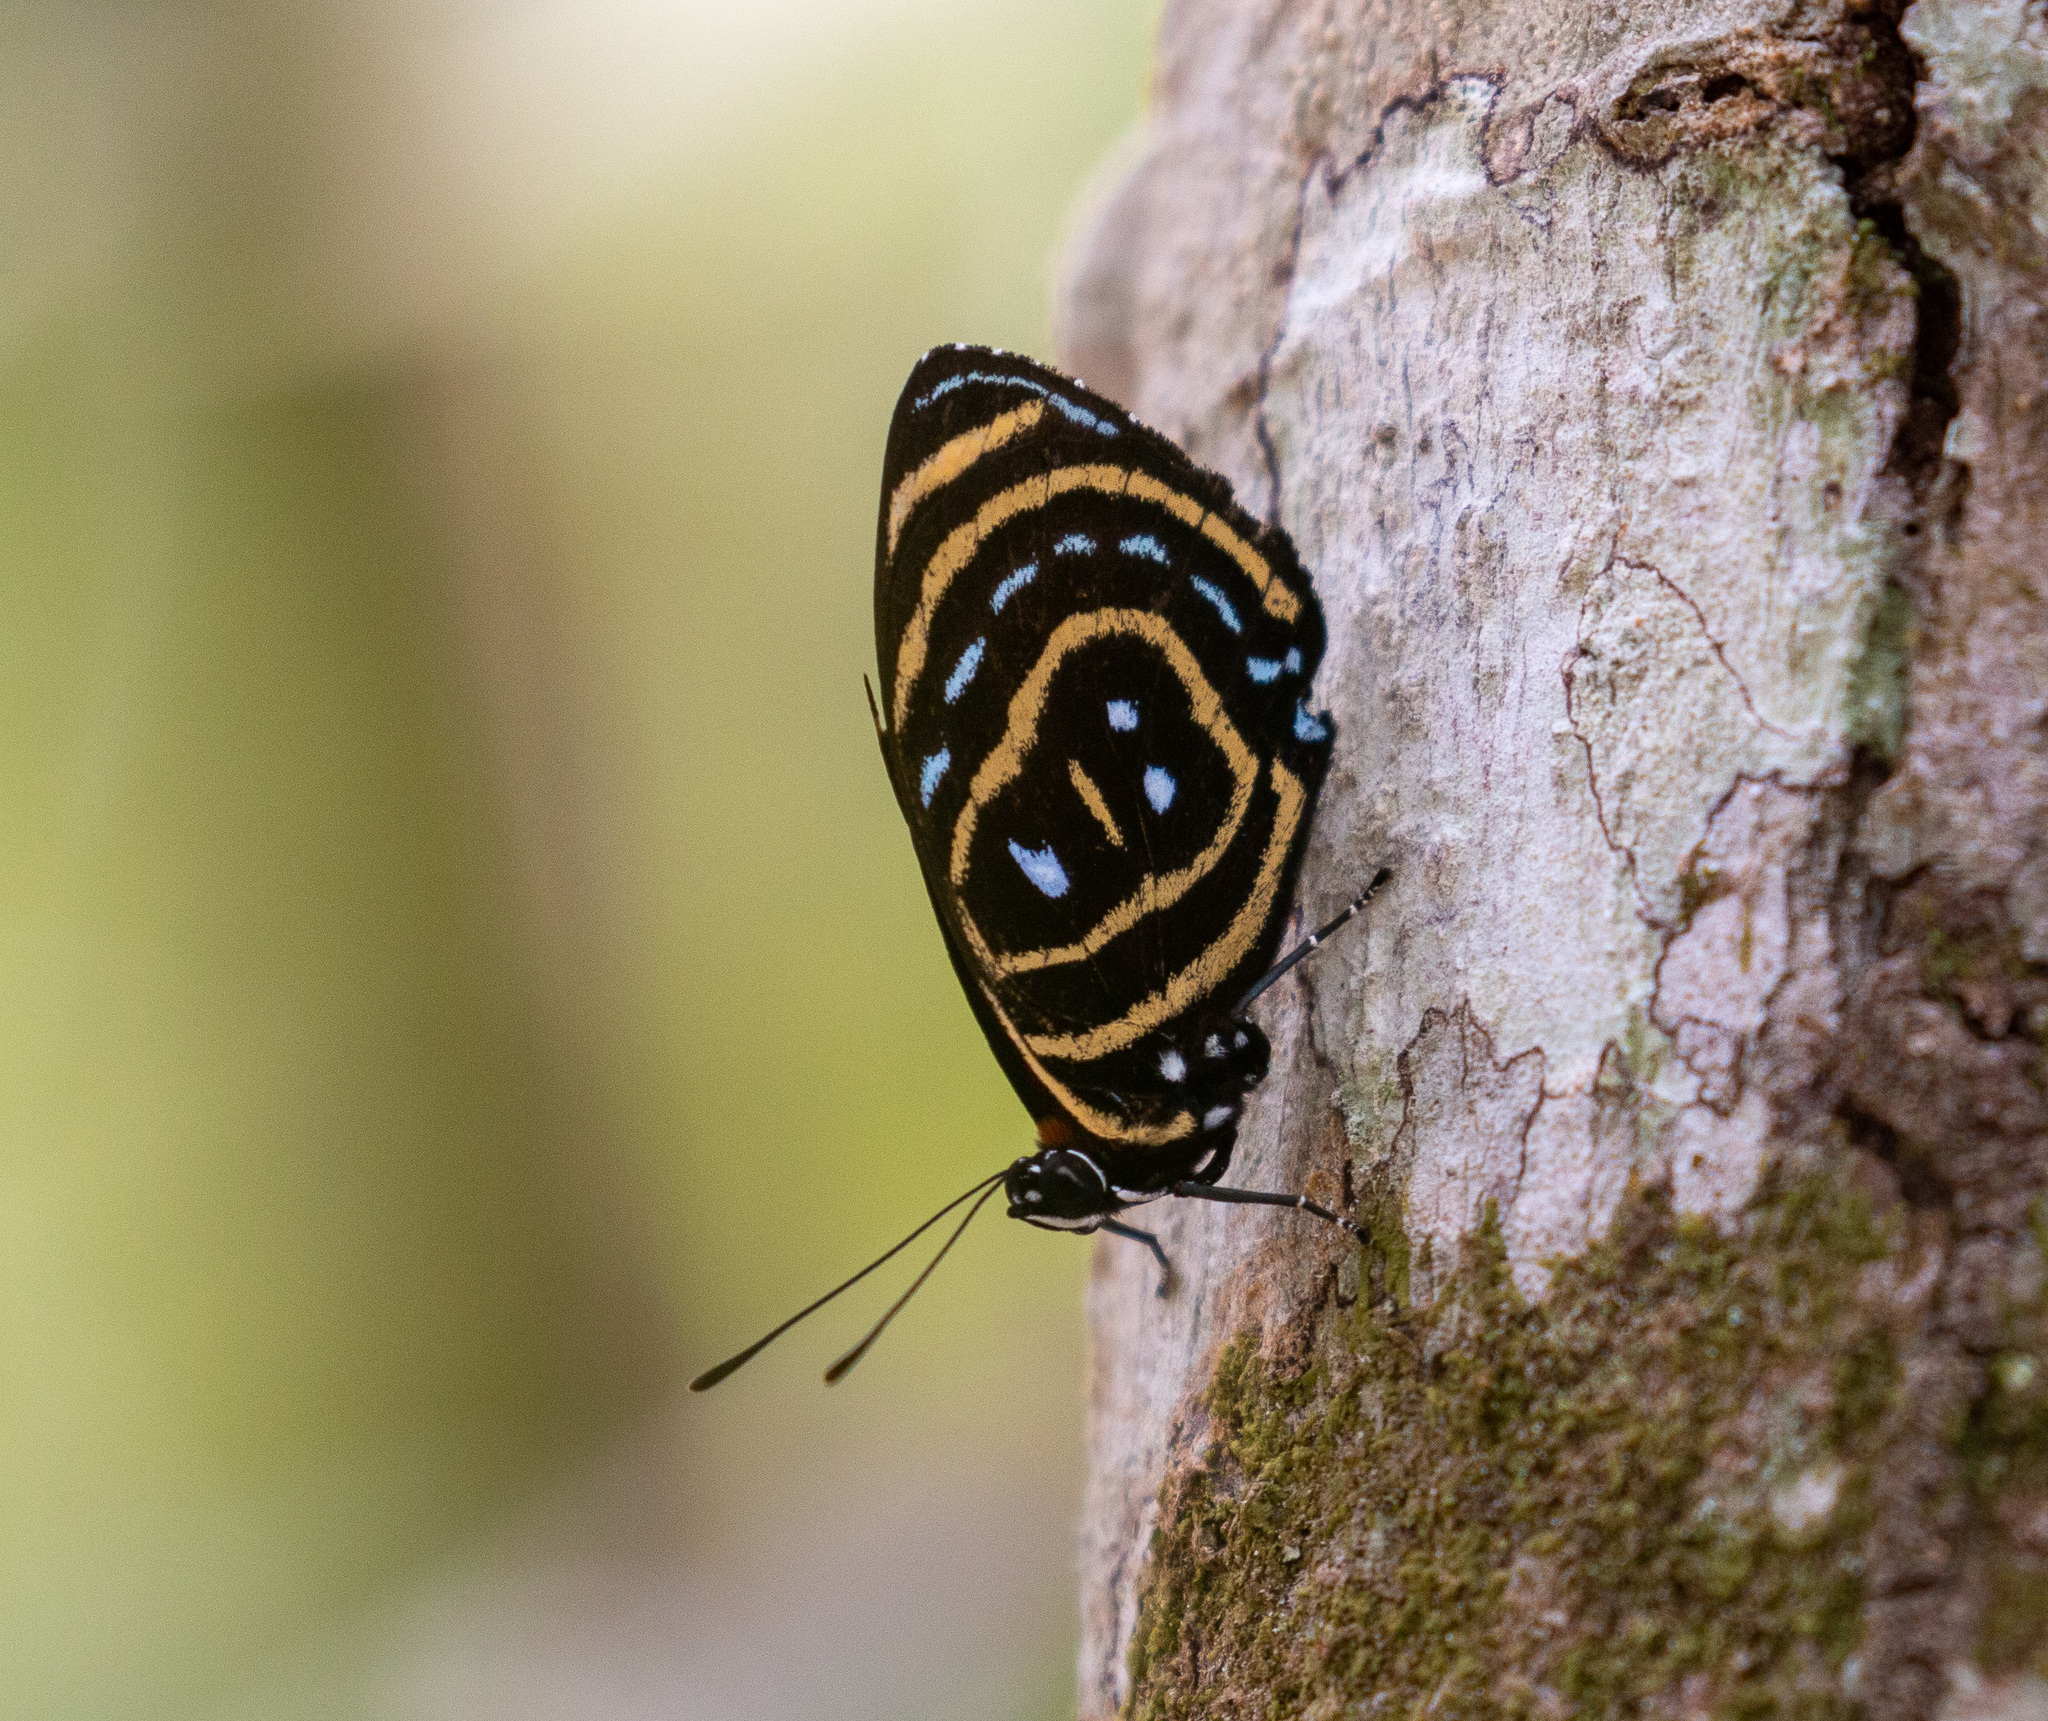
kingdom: Animalia
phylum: Arthropoda
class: Insecta
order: Lepidoptera
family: Nymphalidae
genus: Catagramma
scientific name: Catagramma astarte
